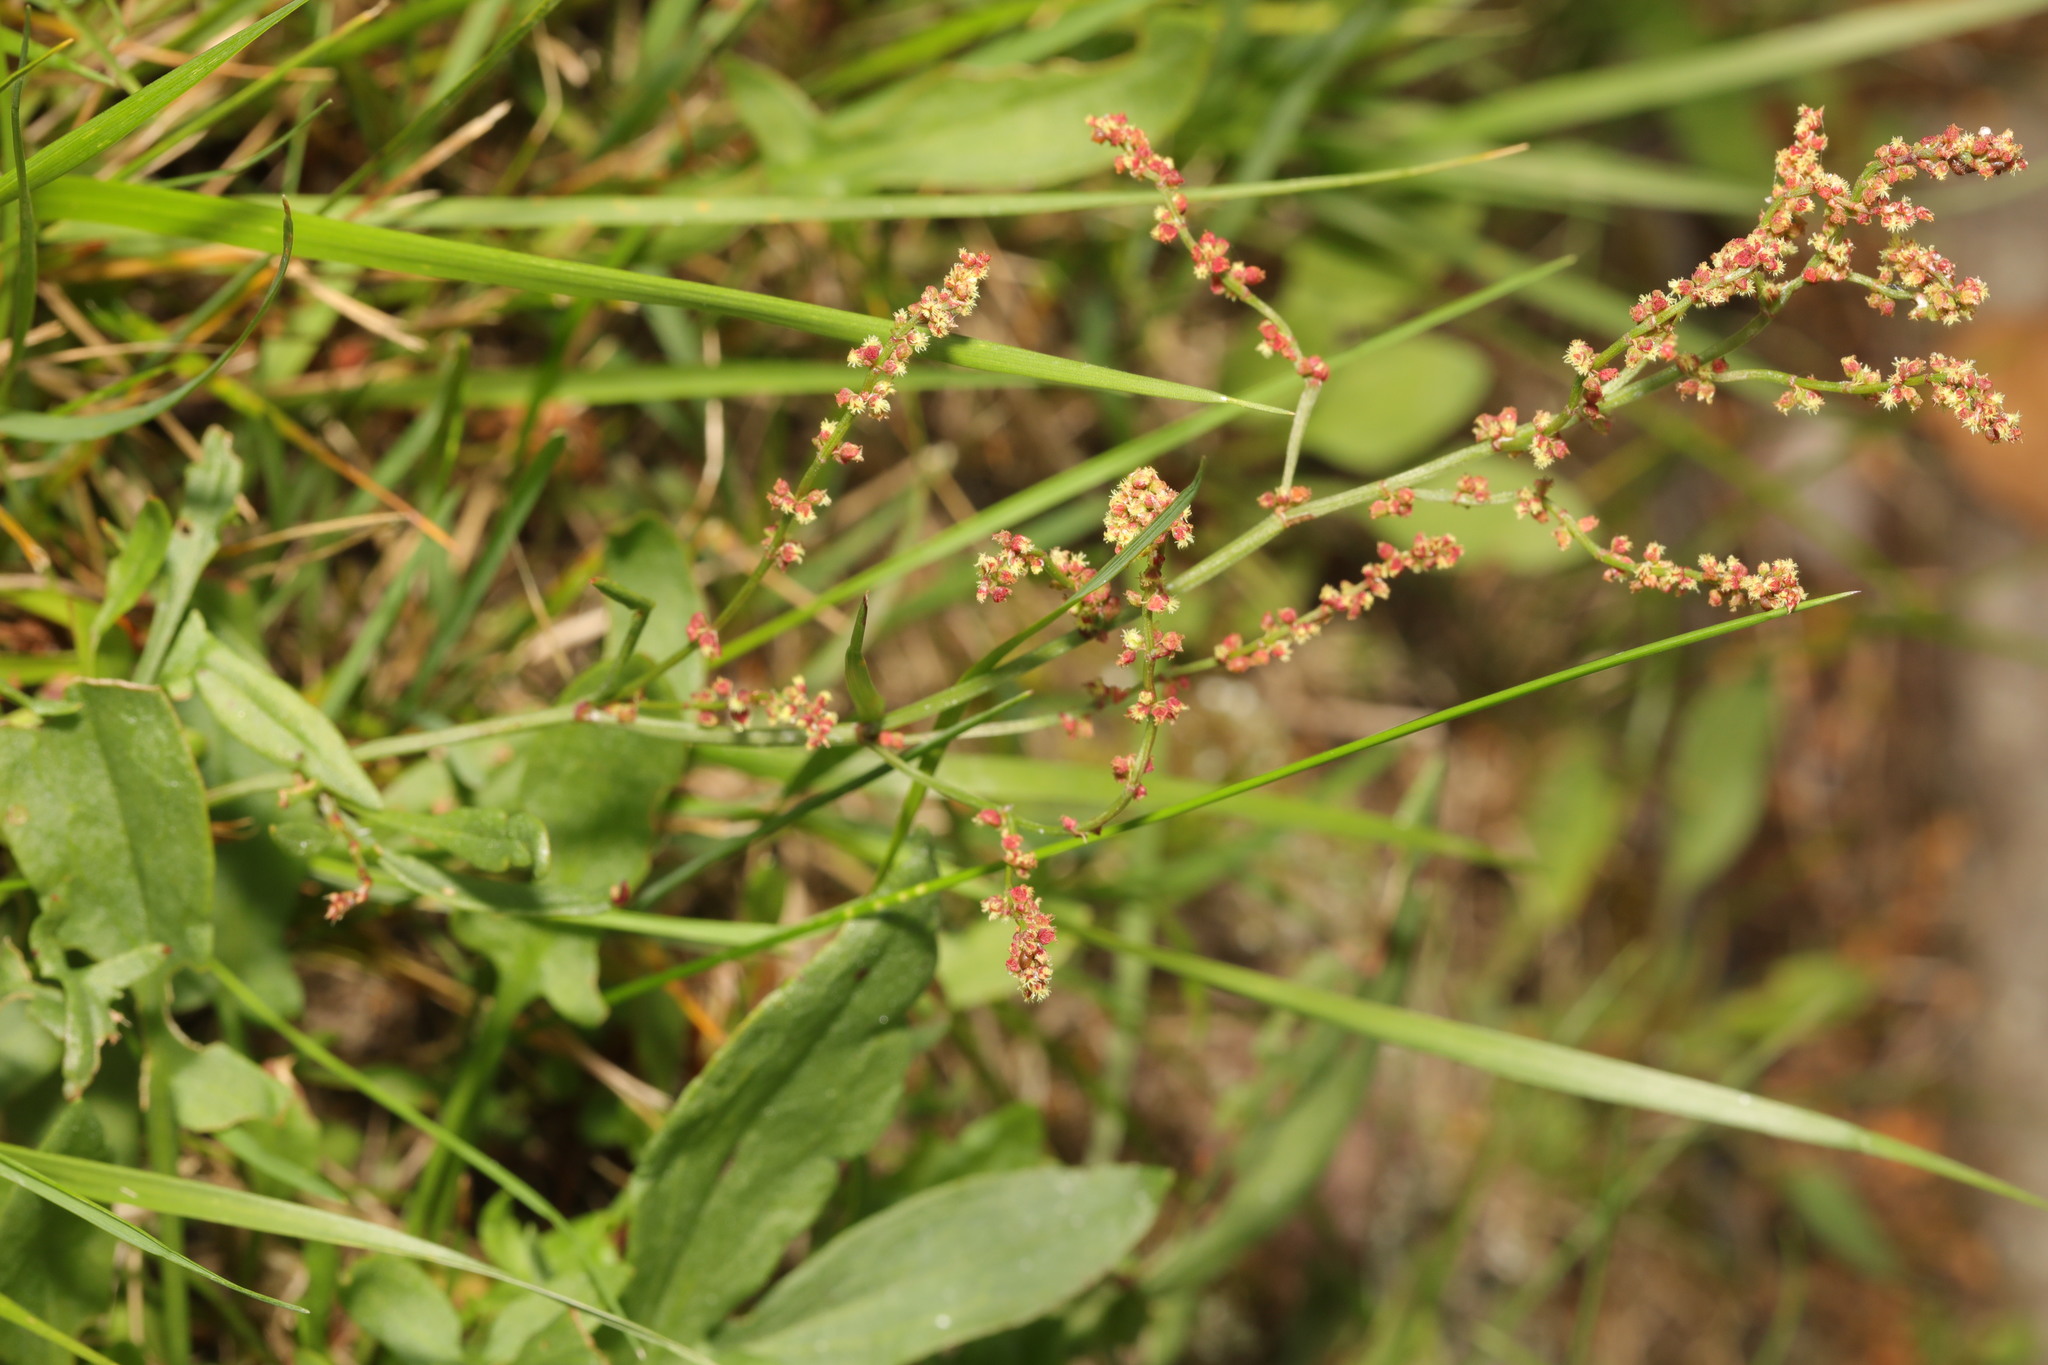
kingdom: Plantae
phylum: Tracheophyta
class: Magnoliopsida
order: Caryophyllales
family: Polygonaceae
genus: Rumex
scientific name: Rumex acetosella
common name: Common sheep sorrel
